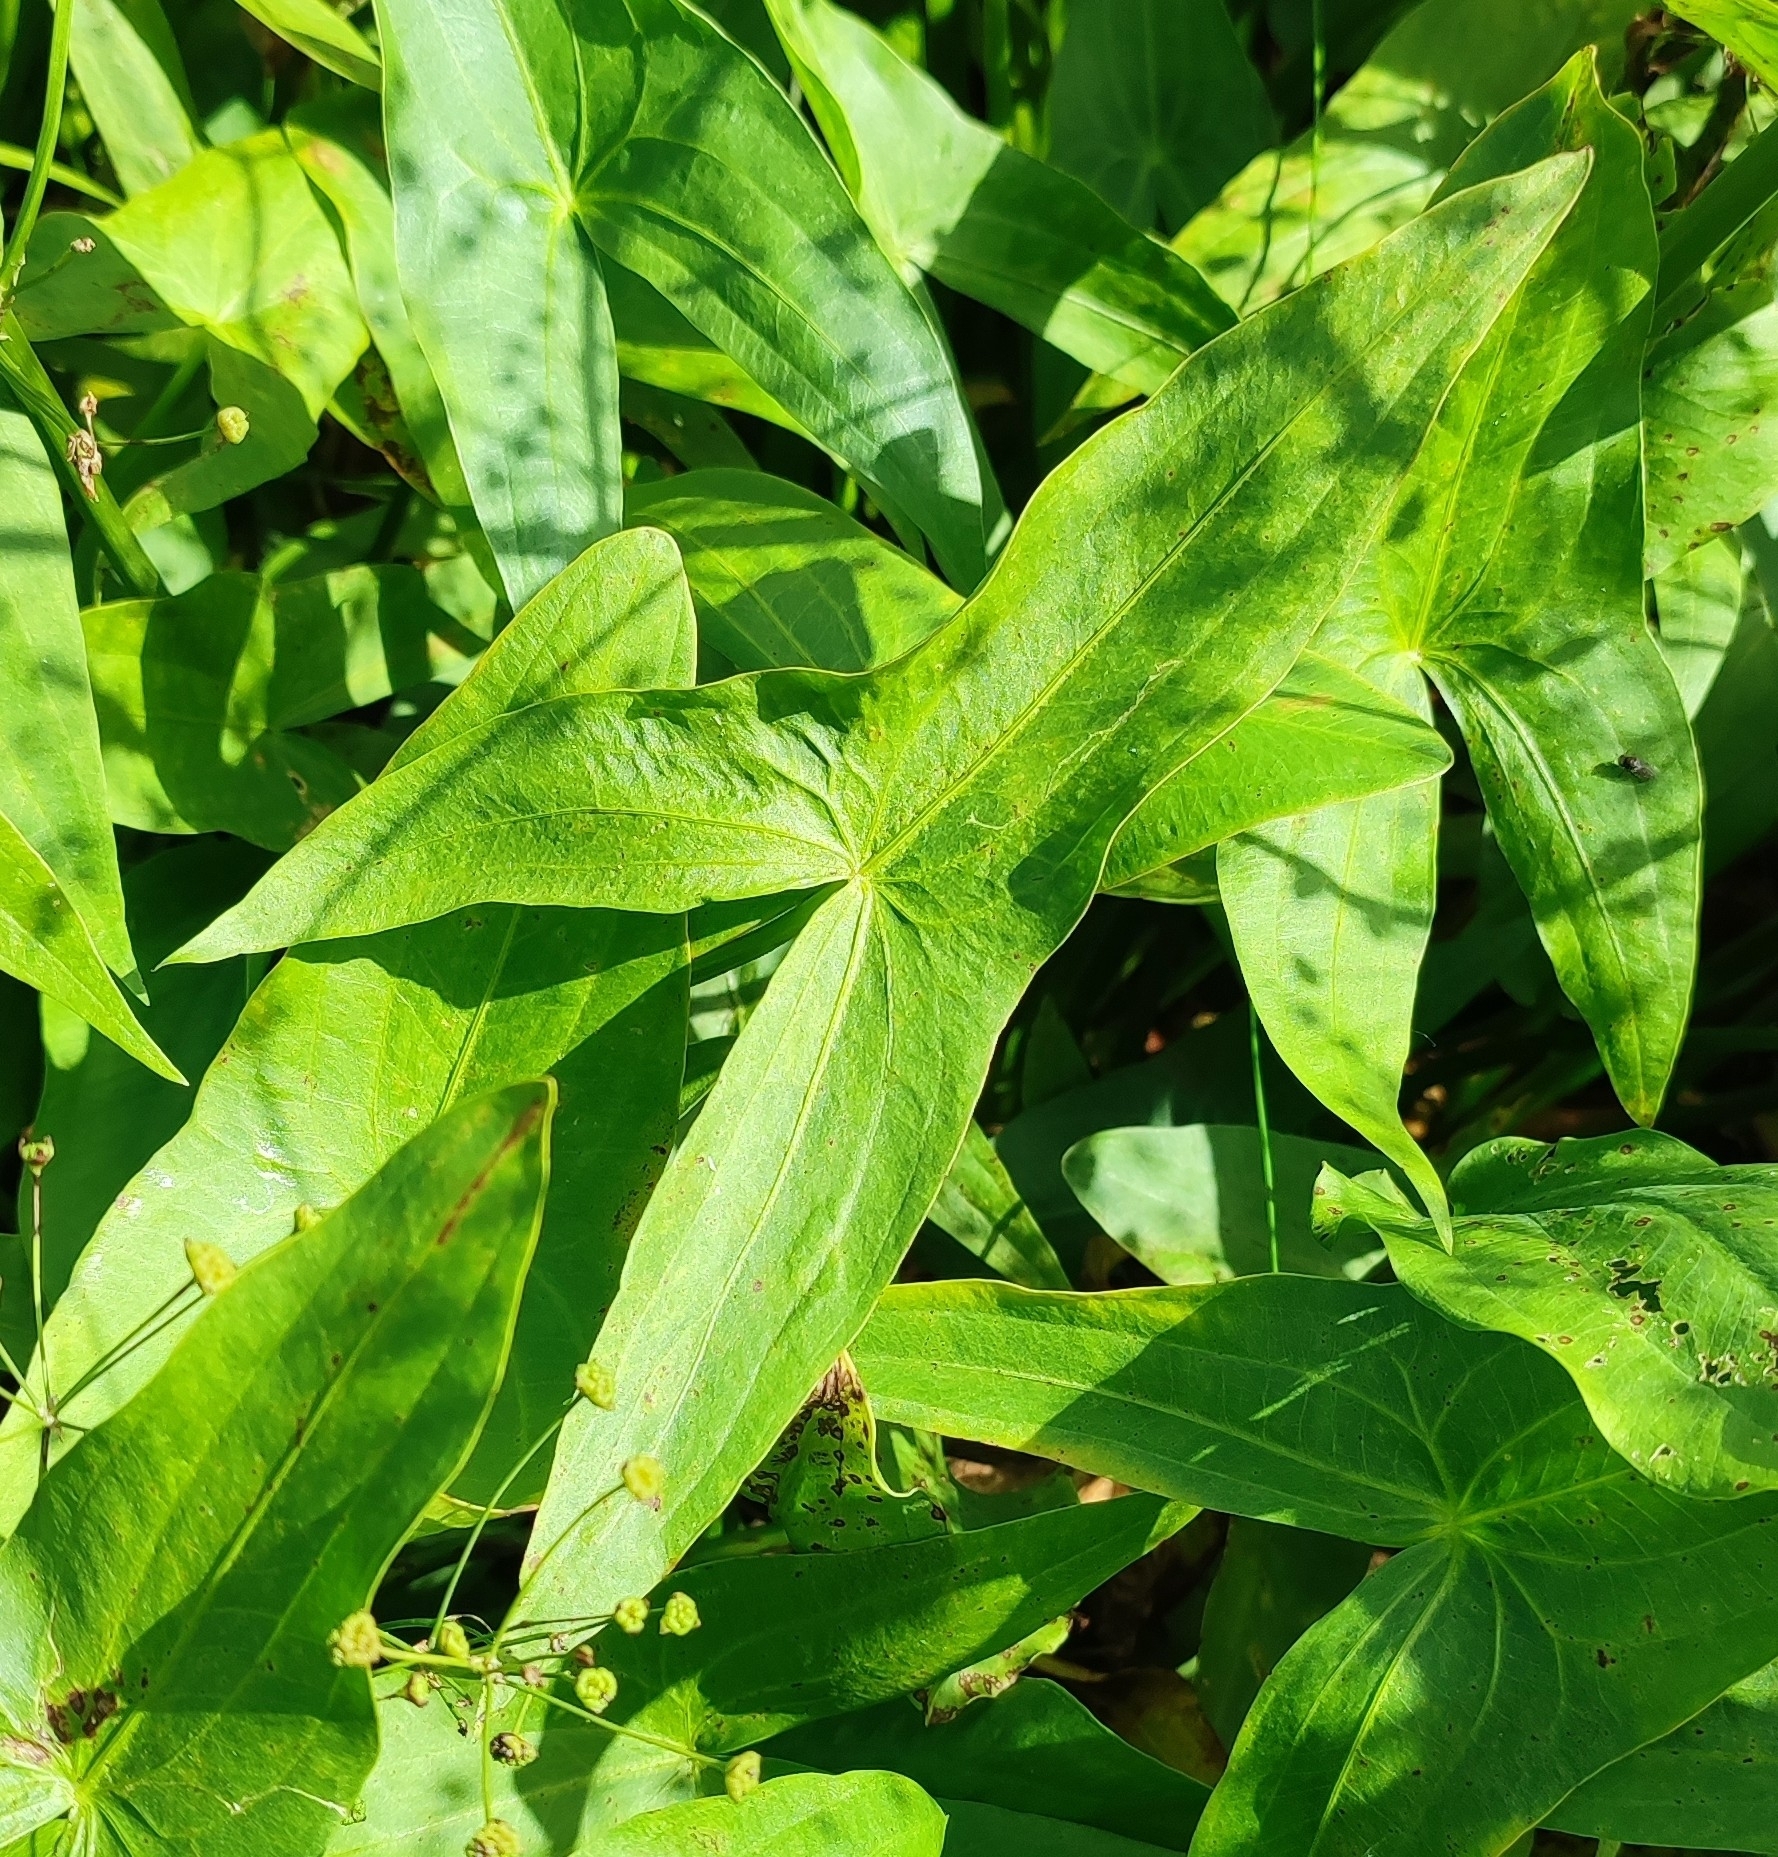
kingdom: Plantae
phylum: Tracheophyta
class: Liliopsida
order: Alismatales
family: Alismataceae
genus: Sagittaria
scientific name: Sagittaria sagittifolia
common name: Arrowhead
